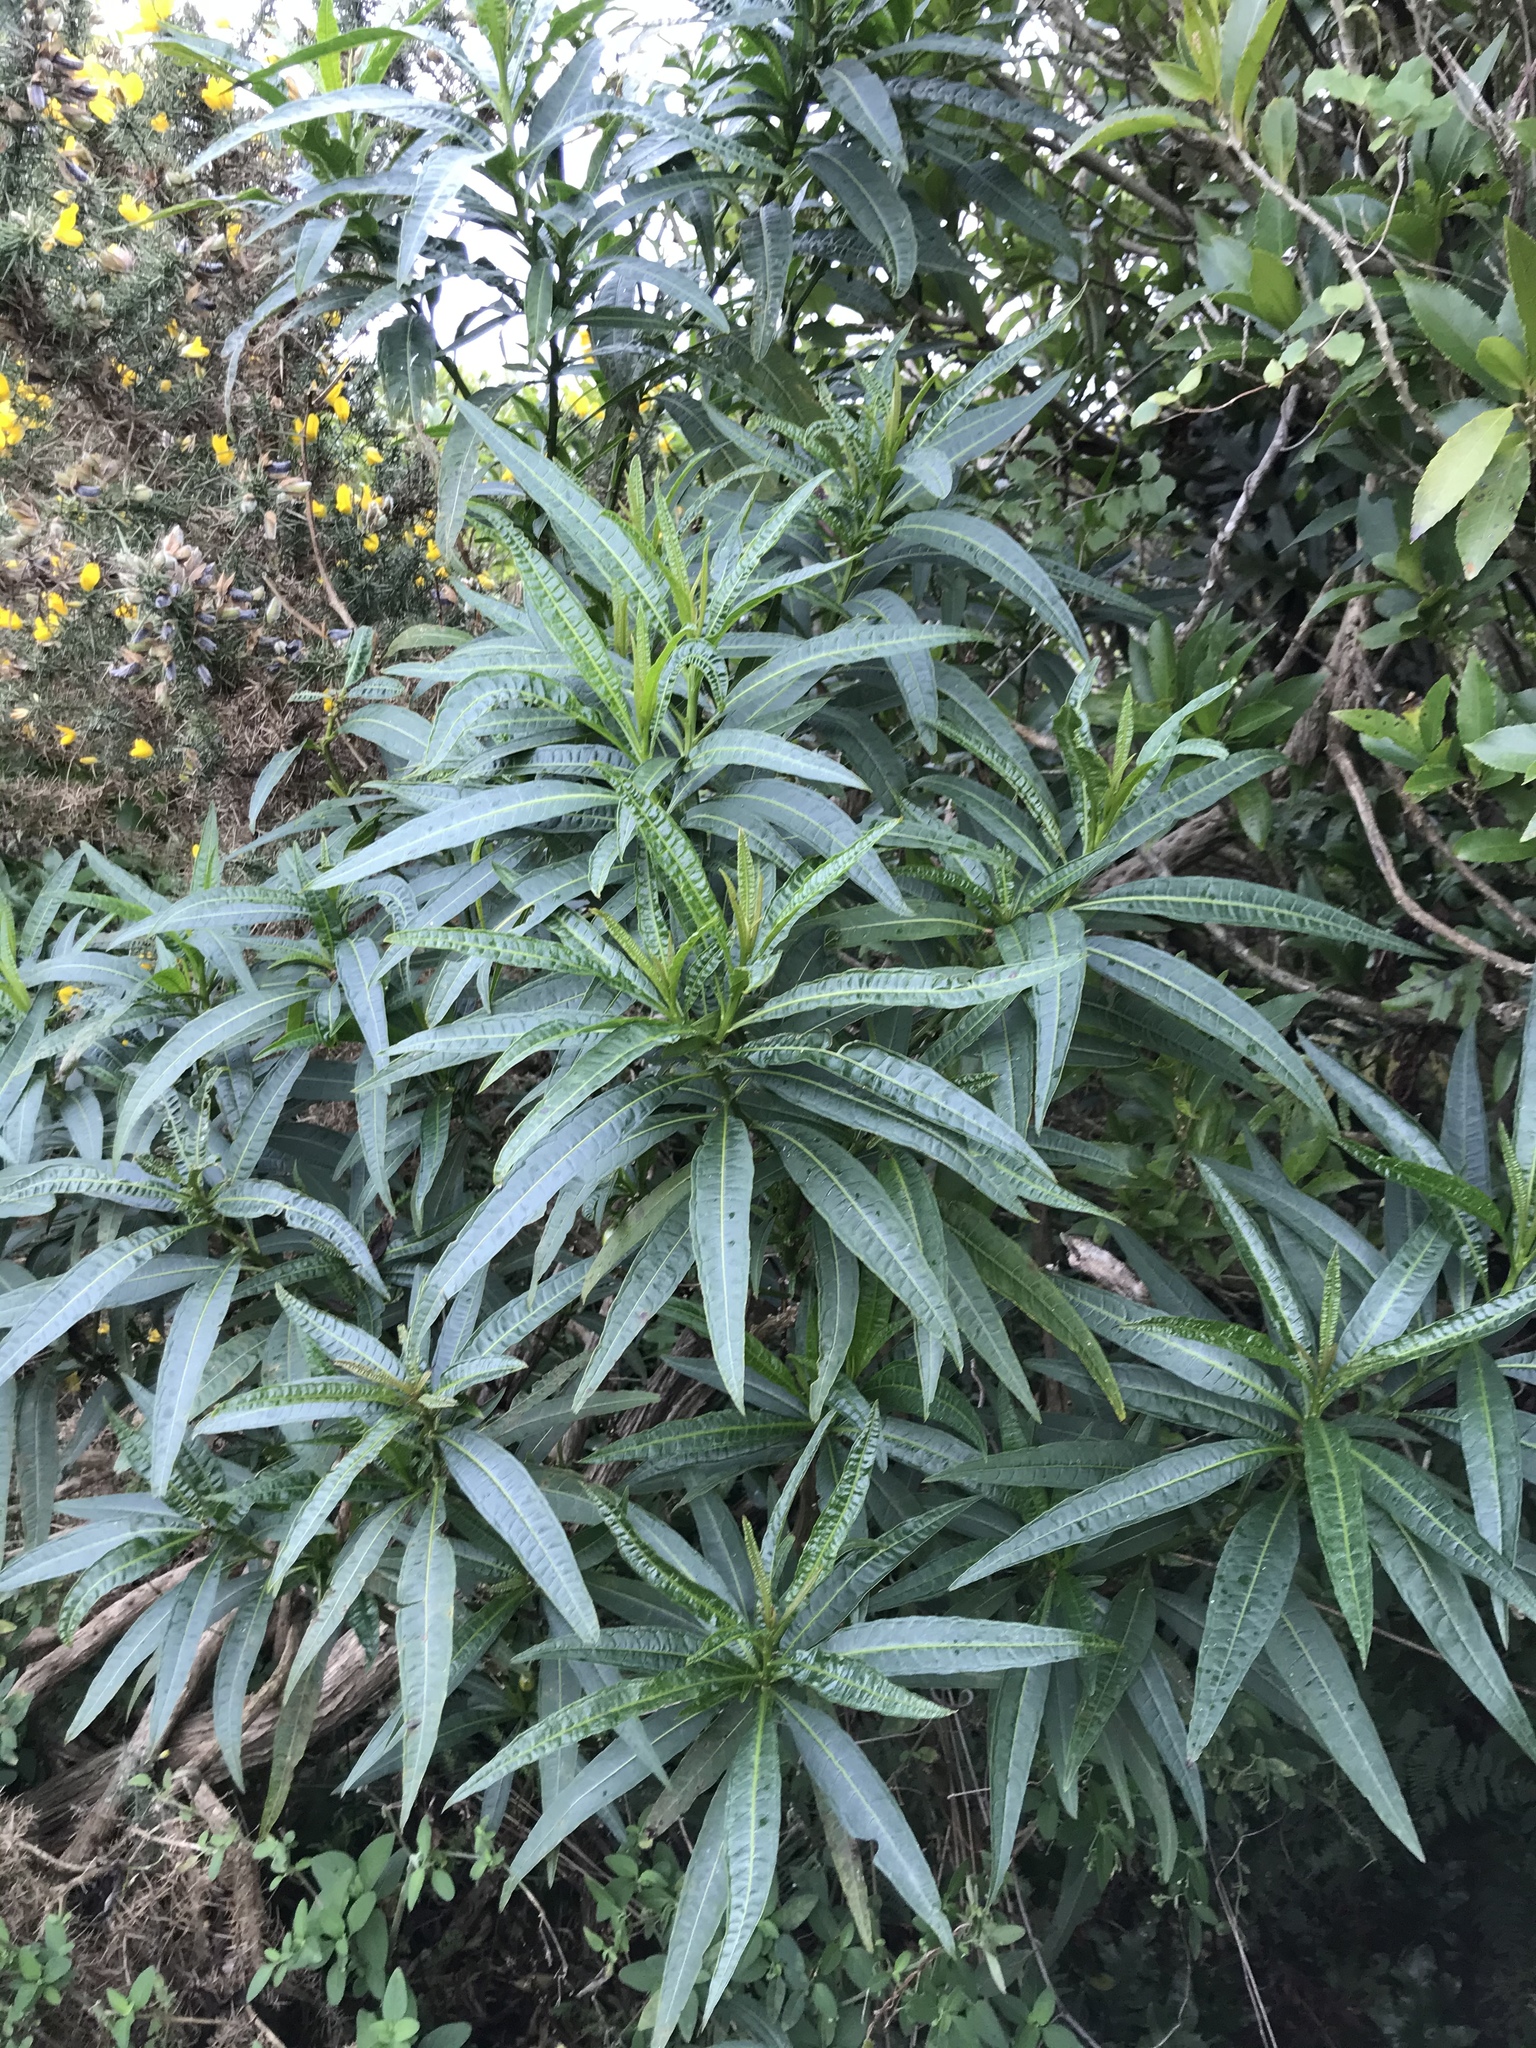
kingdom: Plantae
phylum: Tracheophyta
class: Magnoliopsida
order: Solanales
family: Solanaceae
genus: Solanum
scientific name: Solanum laciniatum
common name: Kangaroo-apple
